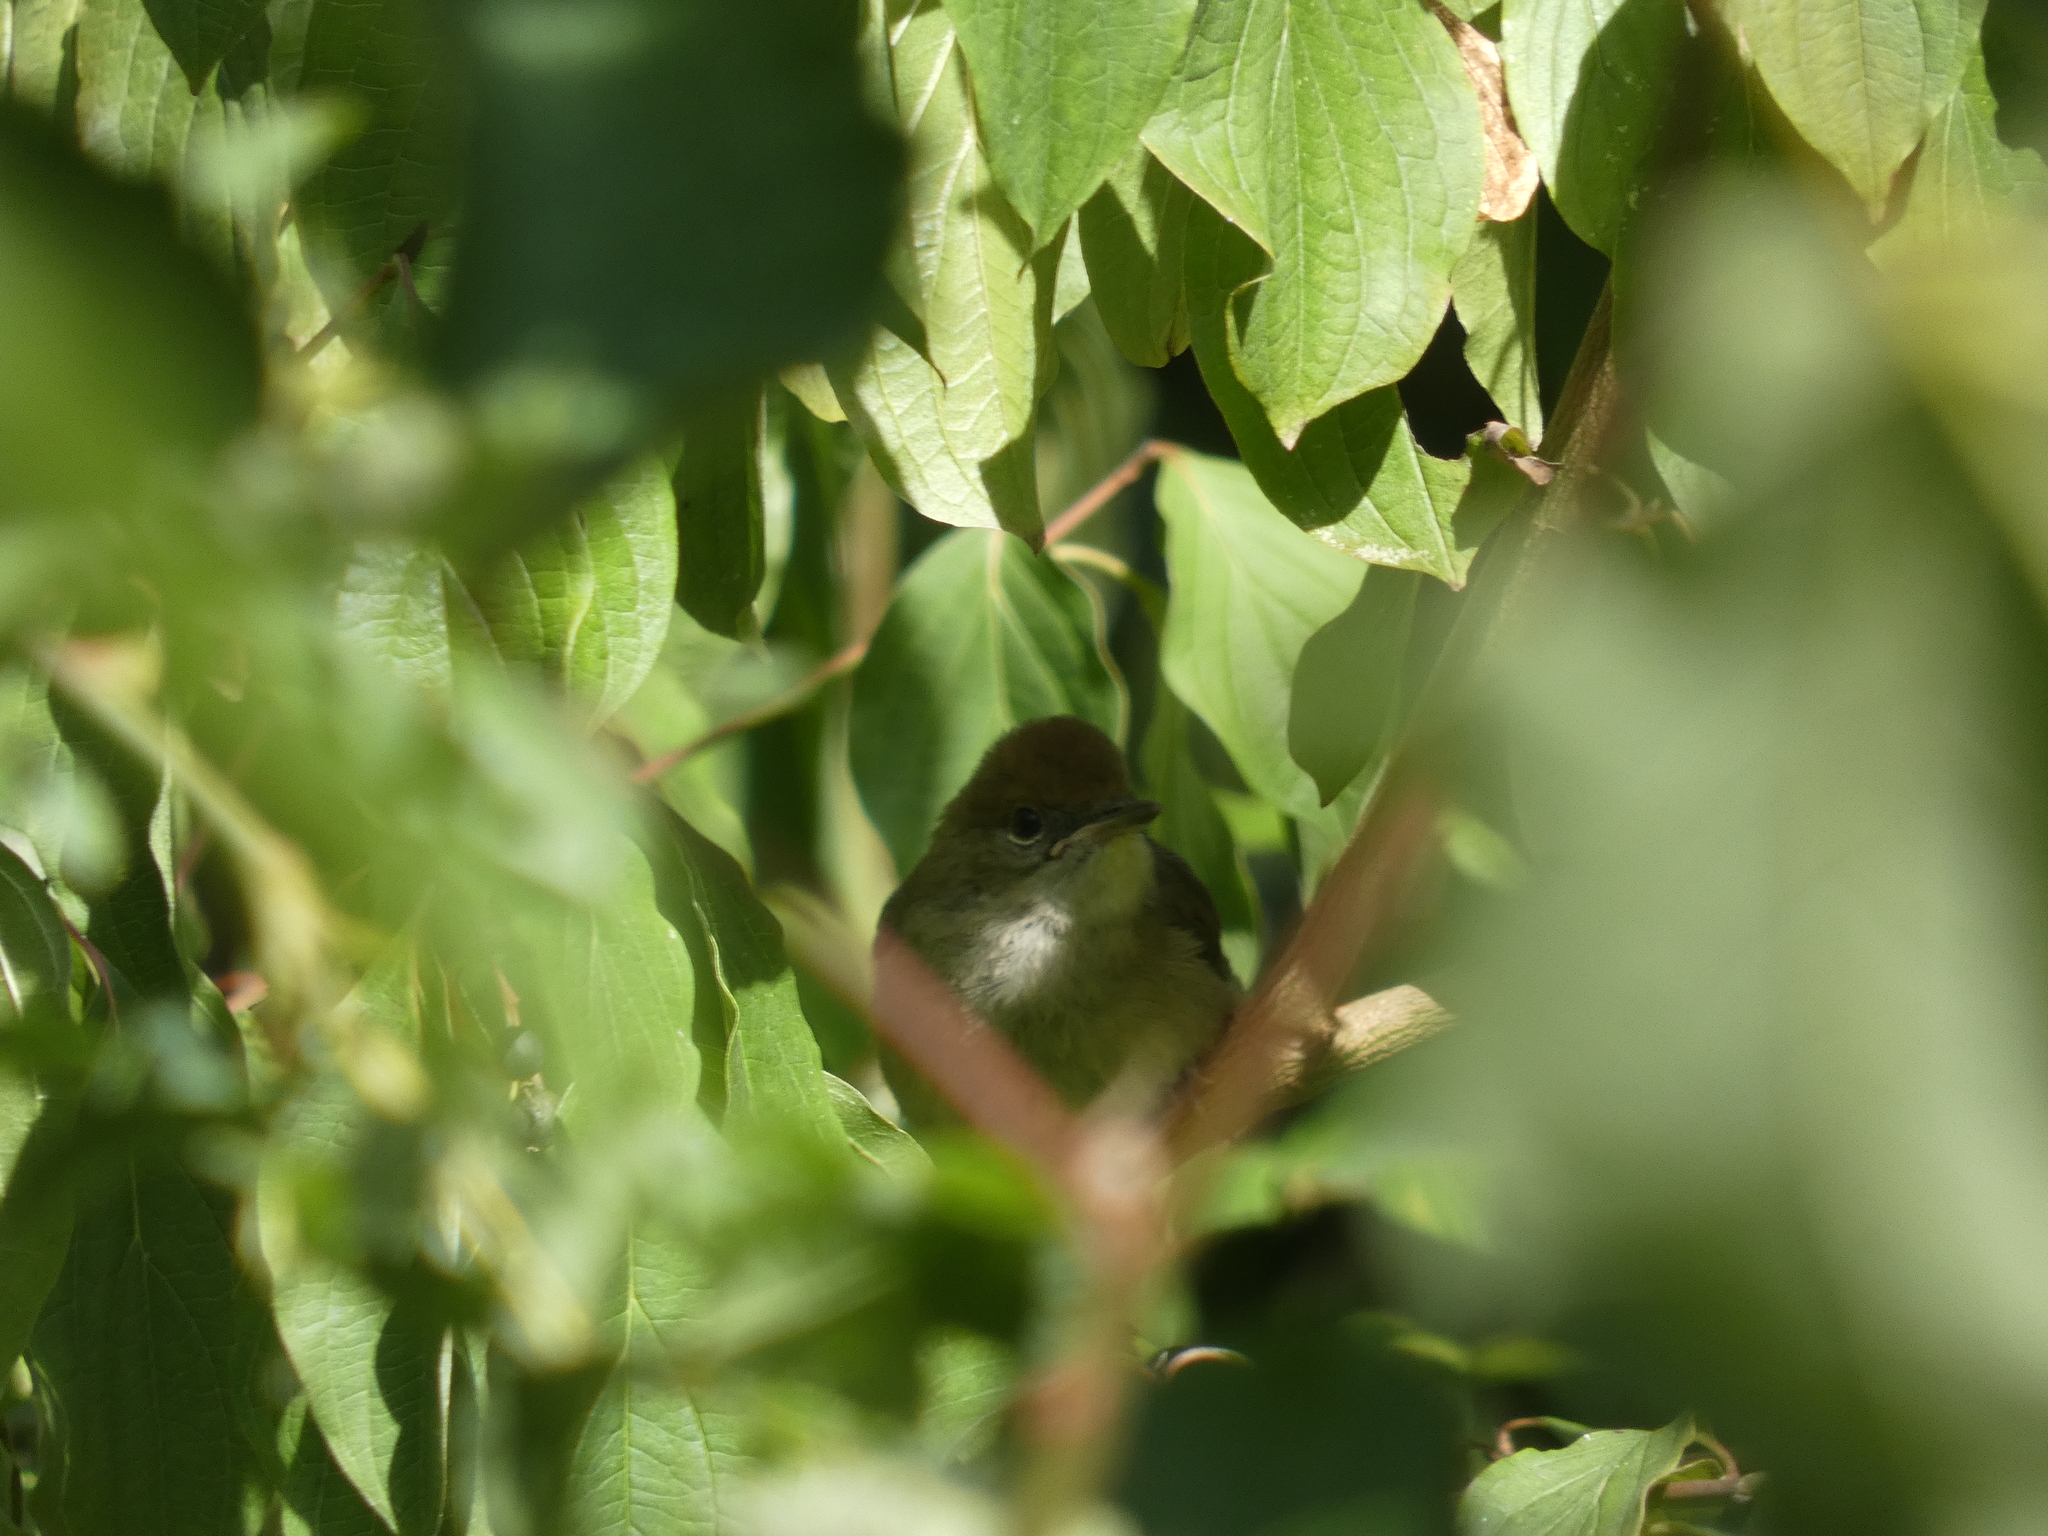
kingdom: Animalia
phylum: Chordata
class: Aves
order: Passeriformes
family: Sylviidae
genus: Sylvia
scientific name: Sylvia atricapilla
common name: Eurasian blackcap
